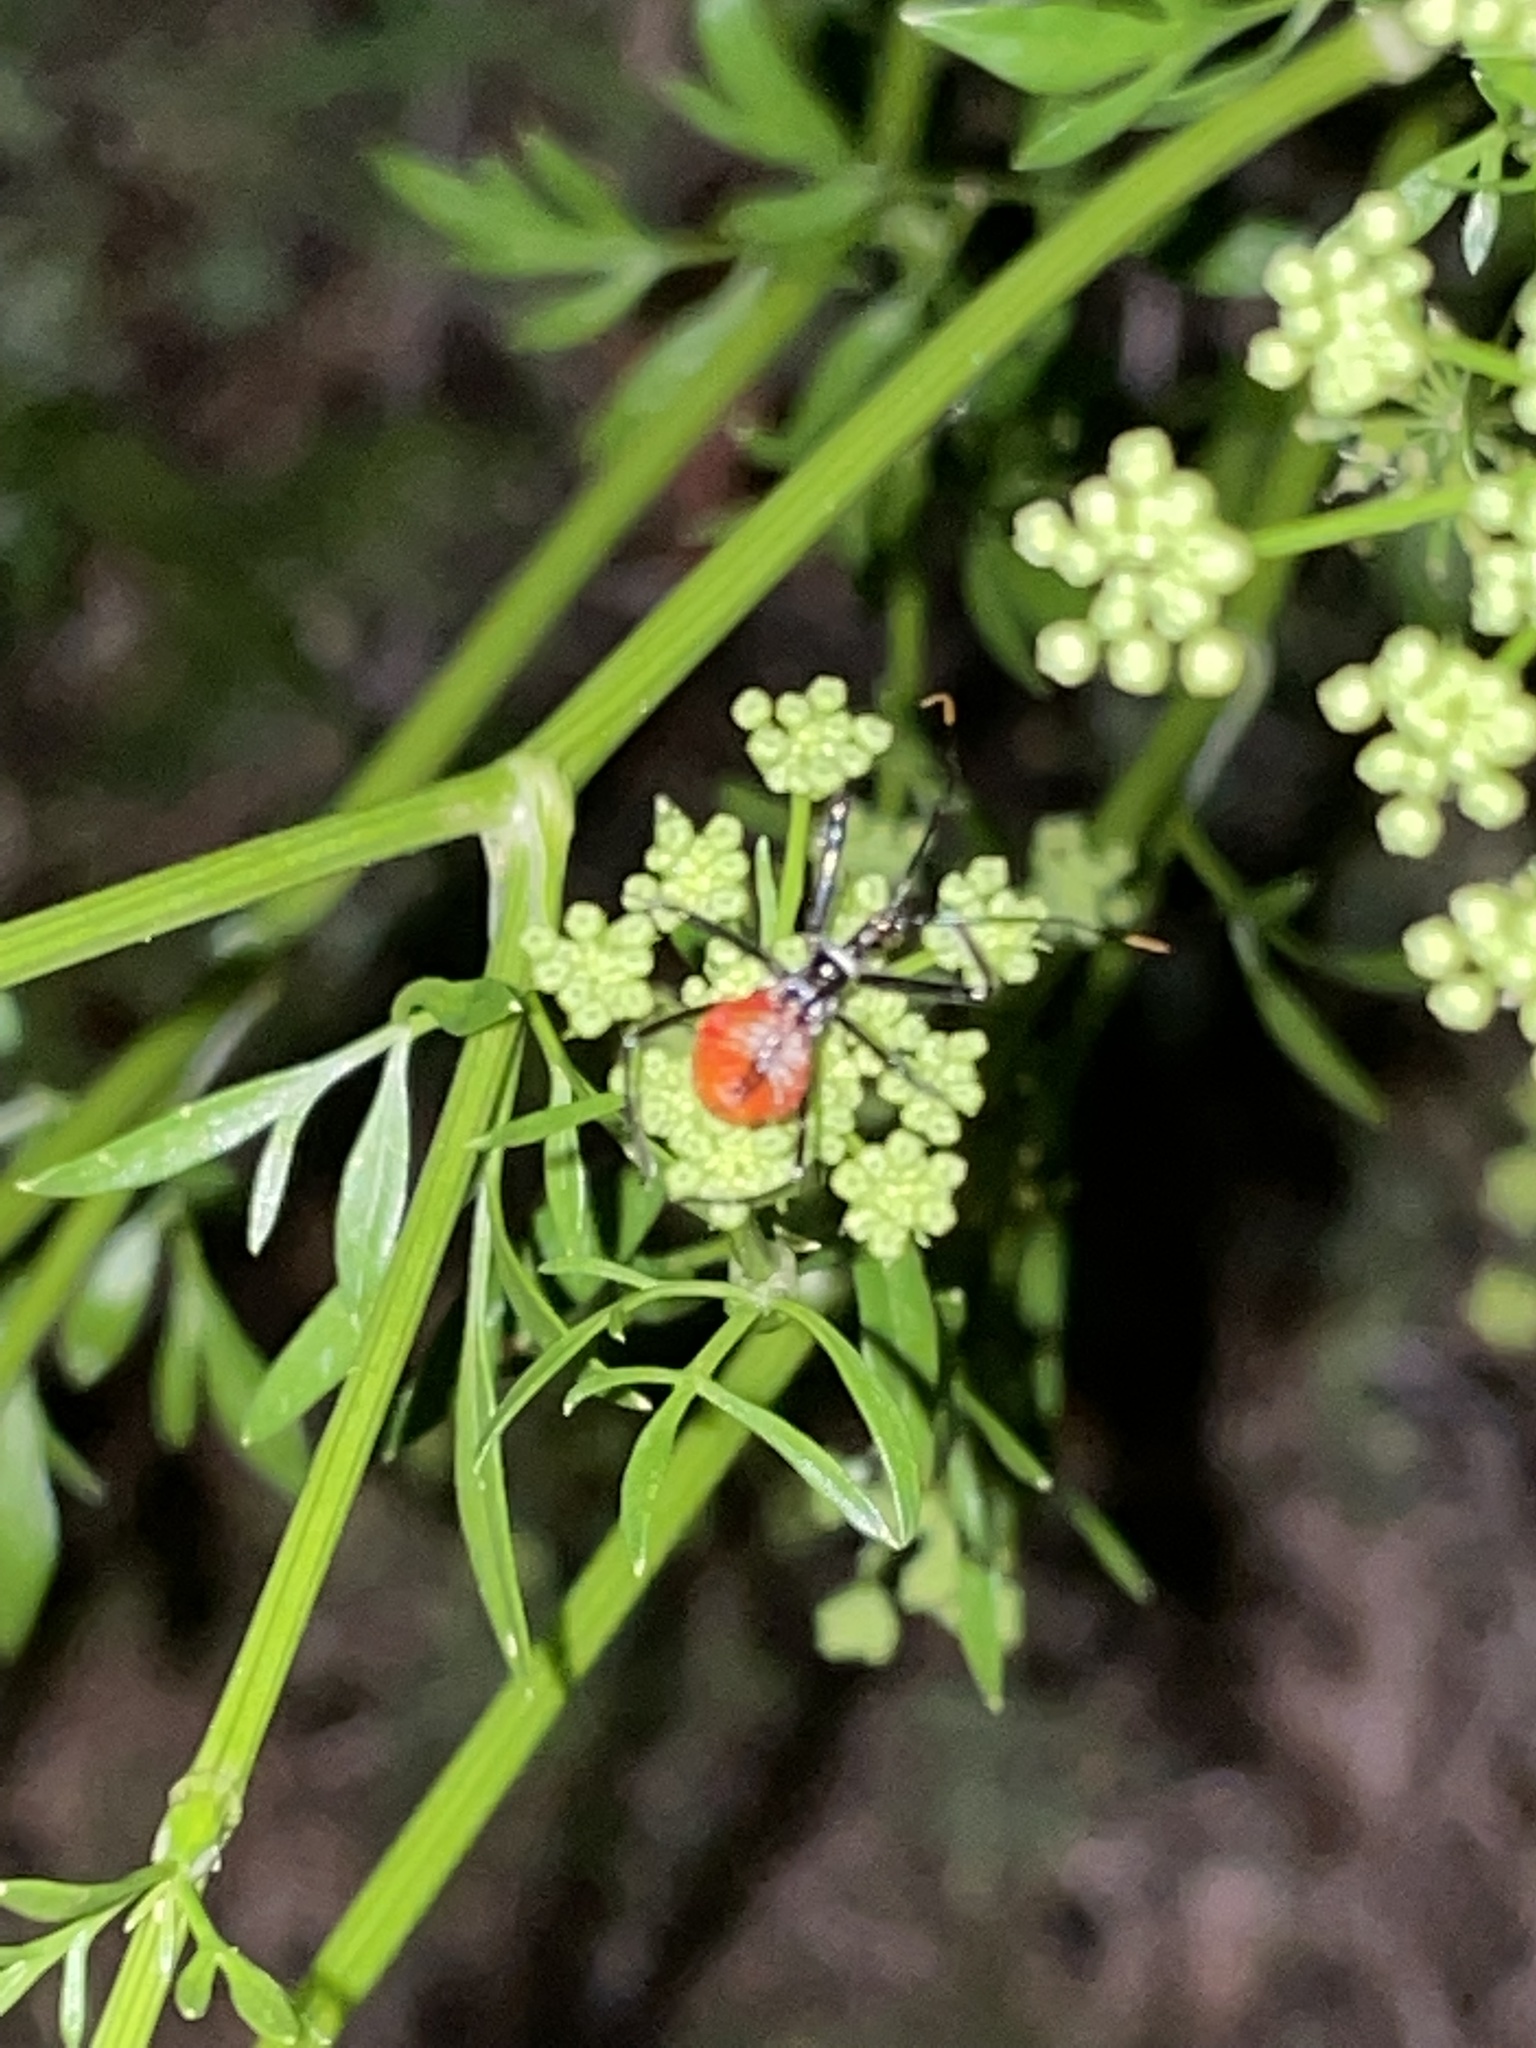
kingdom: Animalia
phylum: Arthropoda
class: Insecta
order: Hemiptera
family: Reduviidae
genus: Arilus
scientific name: Arilus cristatus
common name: North american wheel bug
